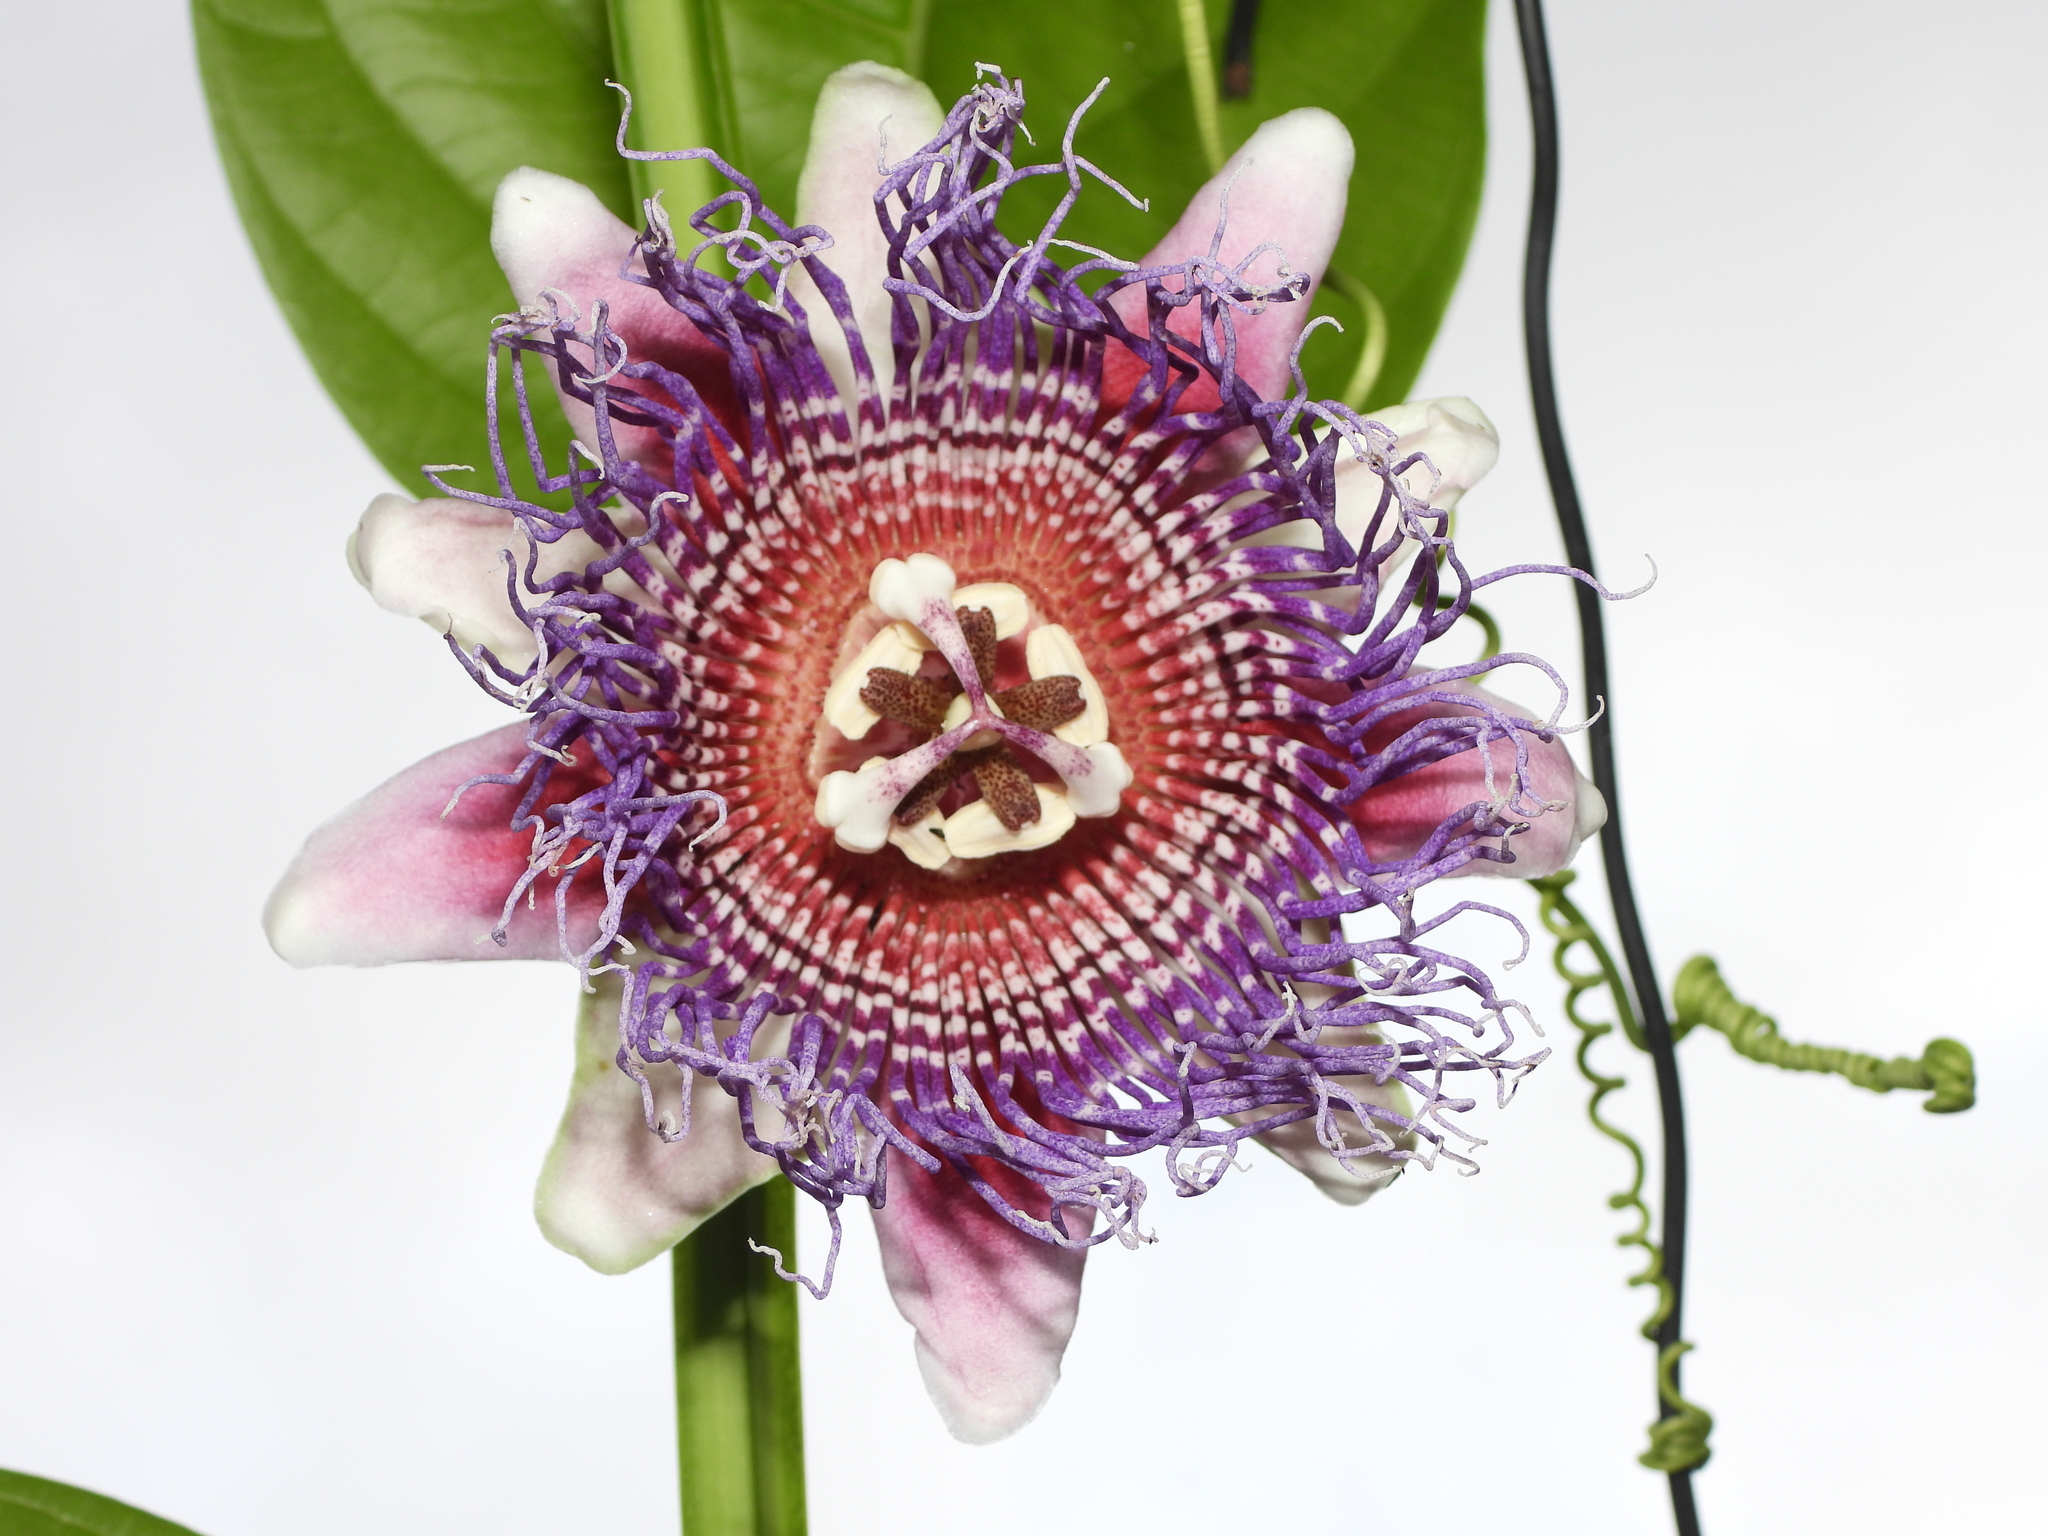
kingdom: Plantae
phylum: Tracheophyta
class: Magnoliopsida
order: Malpighiales
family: Passifloraceae
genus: Passiflora
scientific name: Passiflora quadrangularis
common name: Giant granadilla
